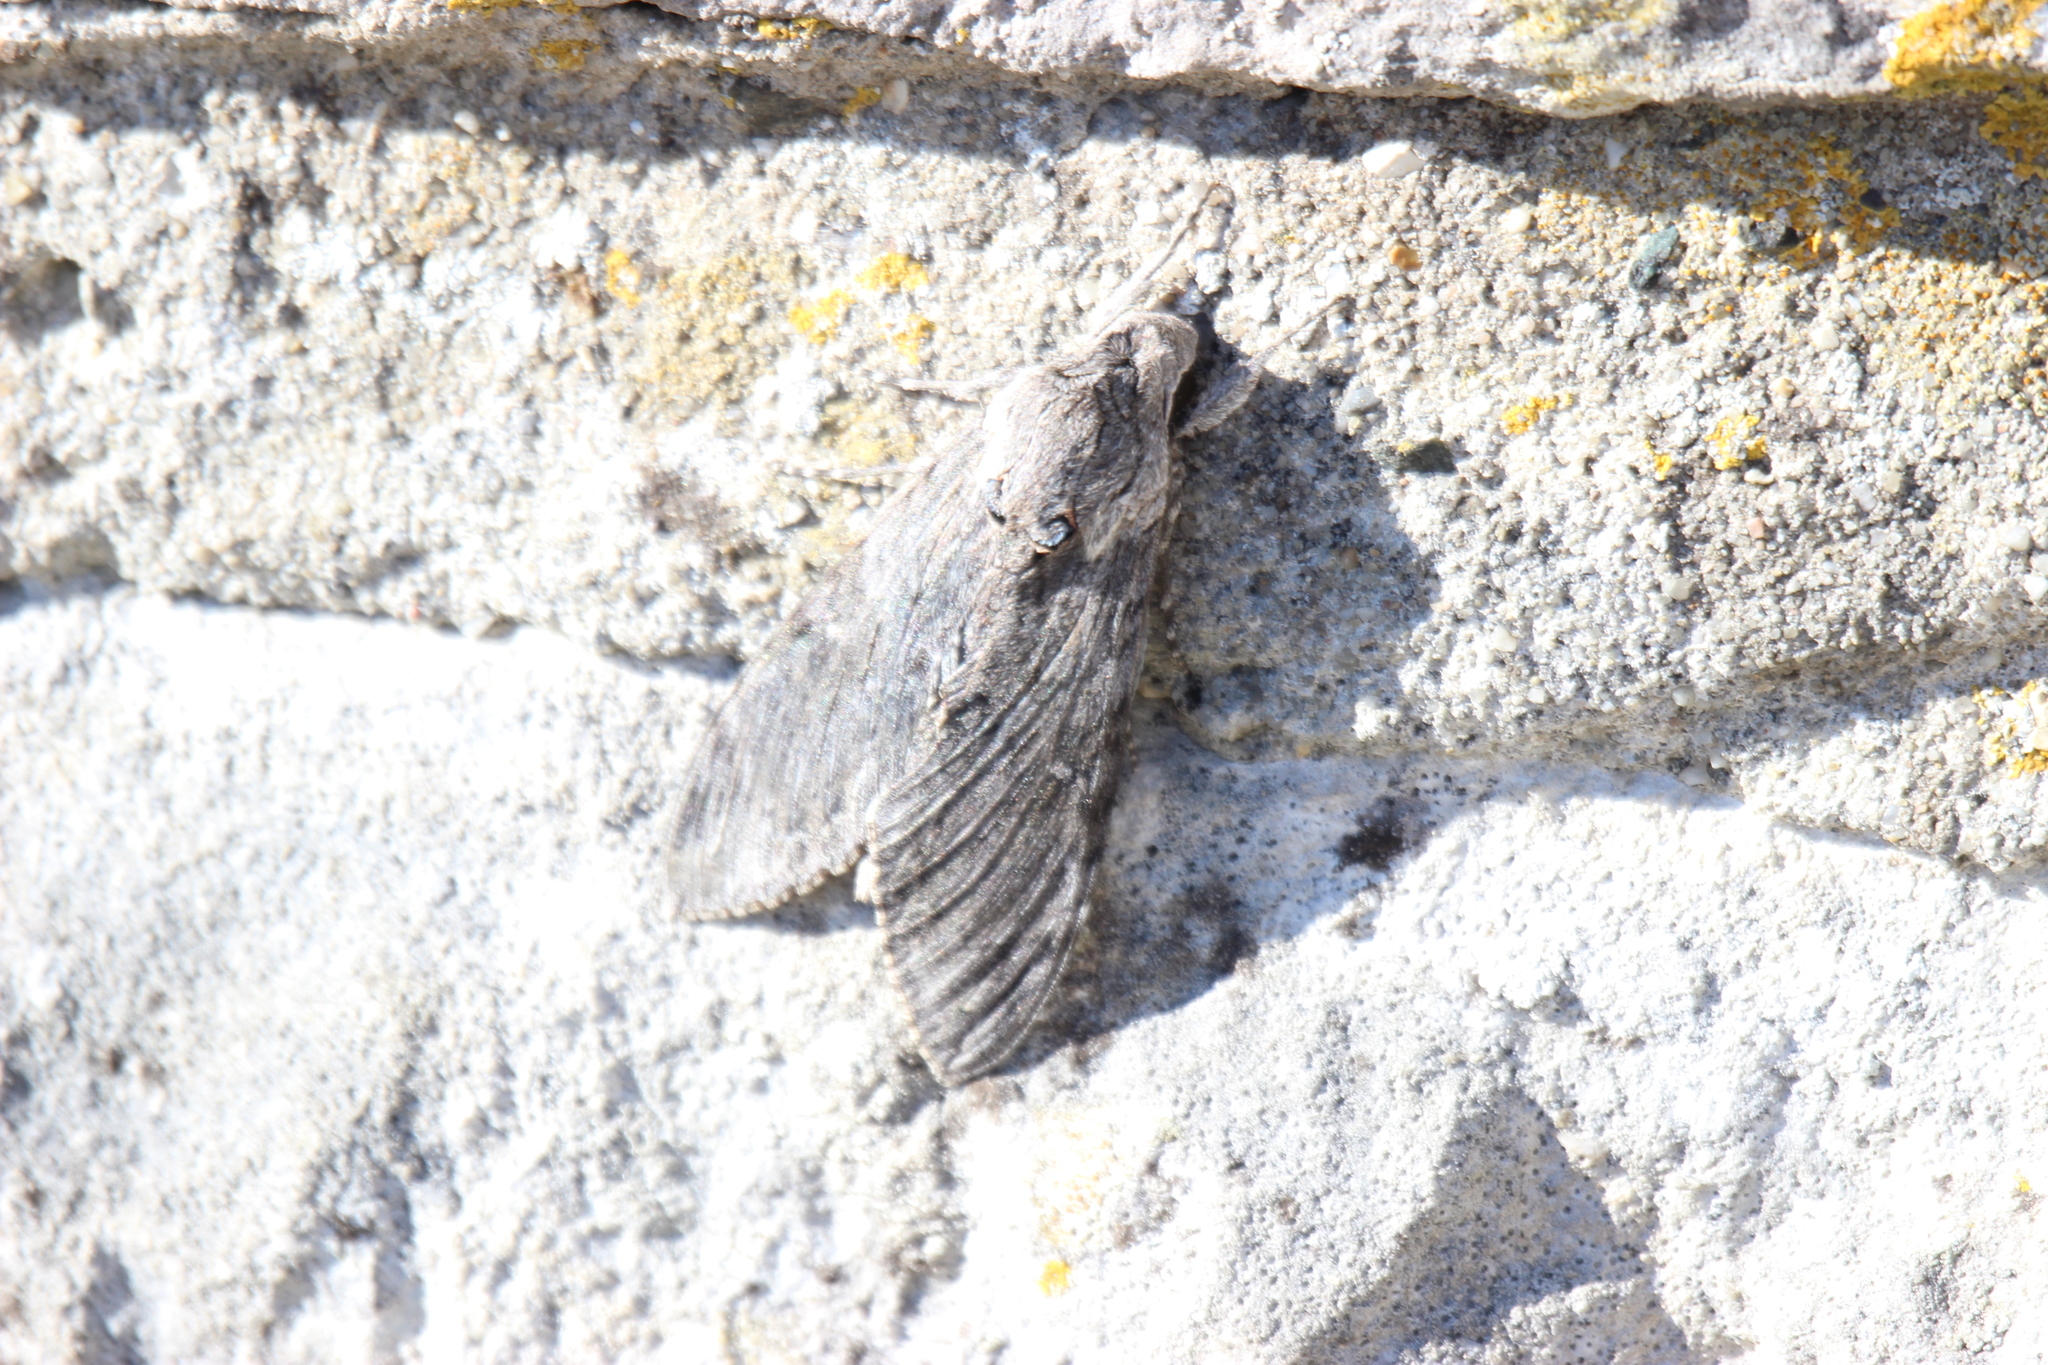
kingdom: Animalia
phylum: Arthropoda
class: Insecta
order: Lepidoptera
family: Sphingidae
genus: Agrius
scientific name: Agrius convolvuli
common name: Convolvulus hawkmoth
